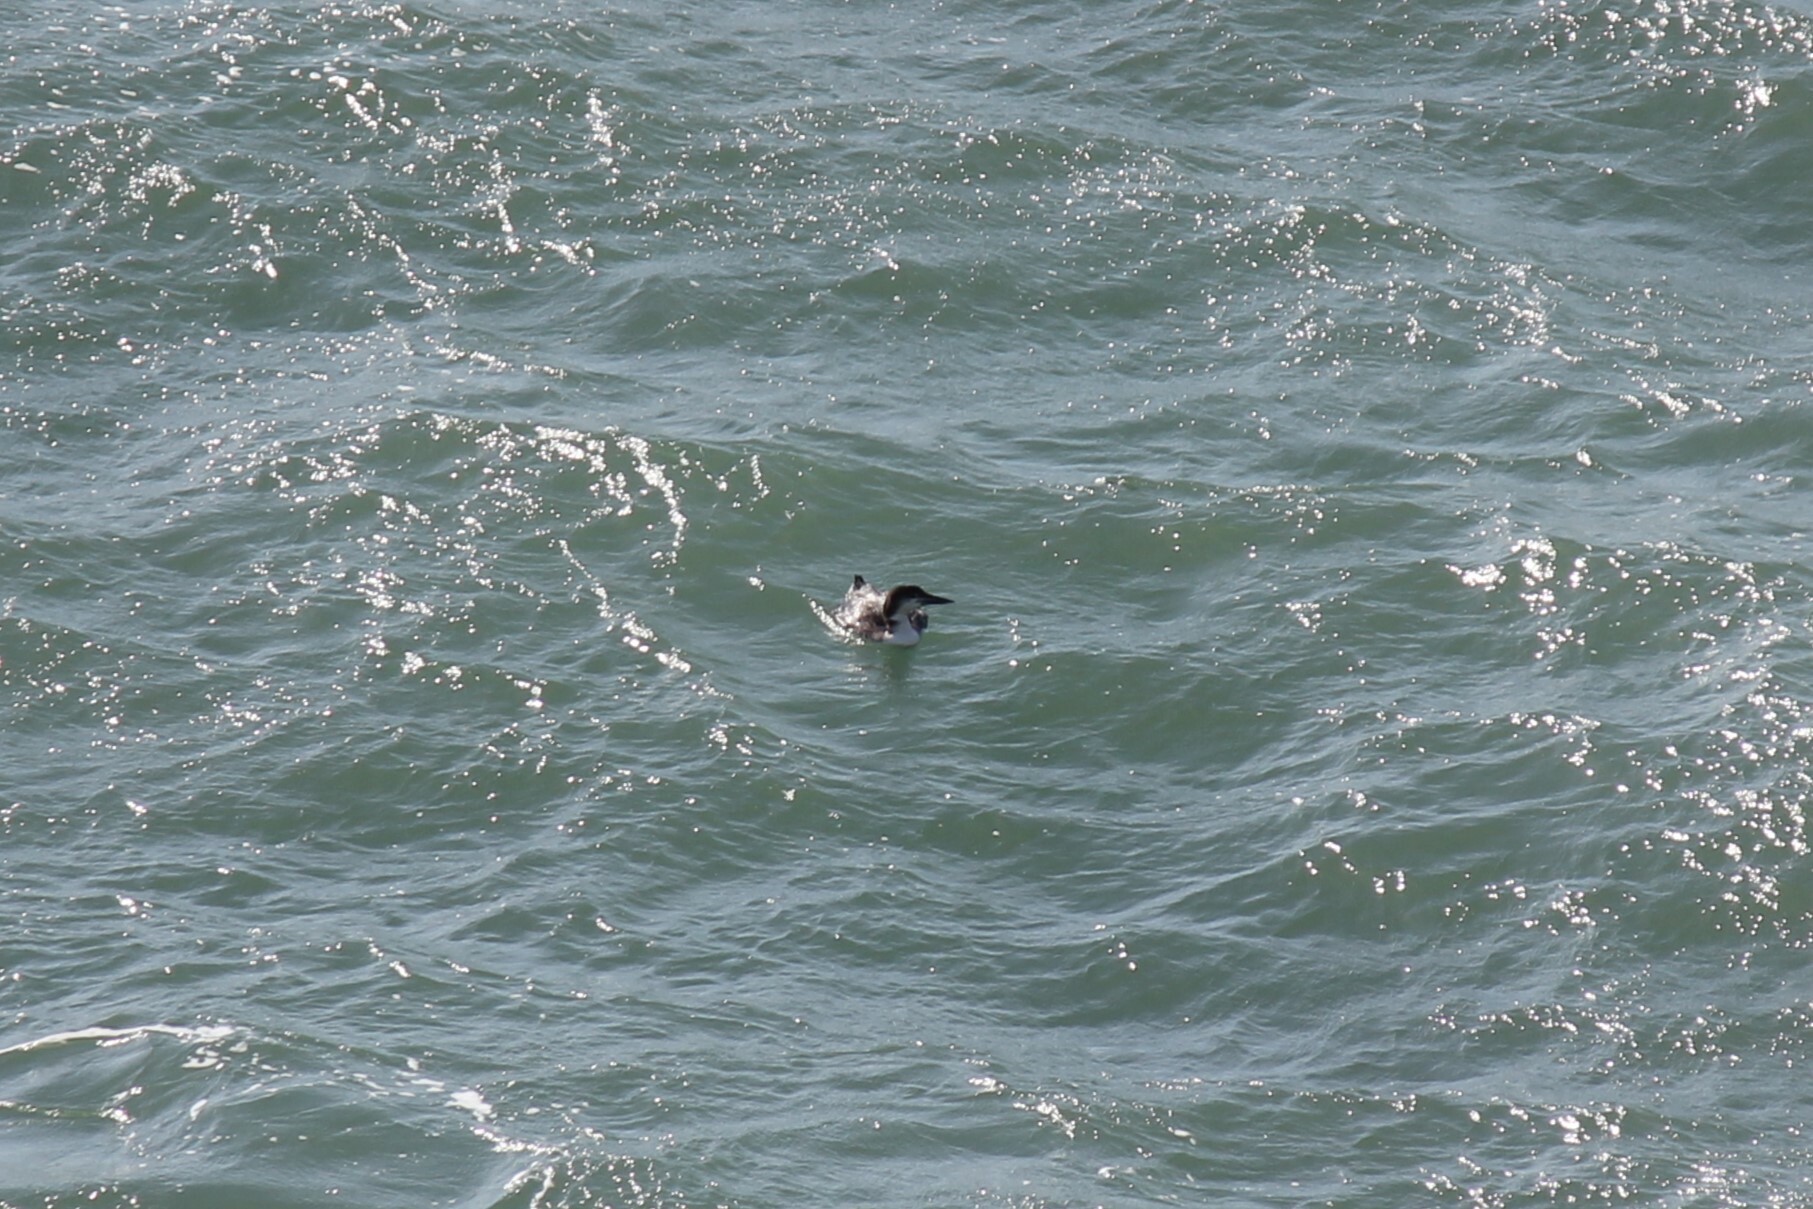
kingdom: Animalia
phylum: Chordata
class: Aves
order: Gaviiformes
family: Gaviidae
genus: Gavia
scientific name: Gavia immer
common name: Common loon
